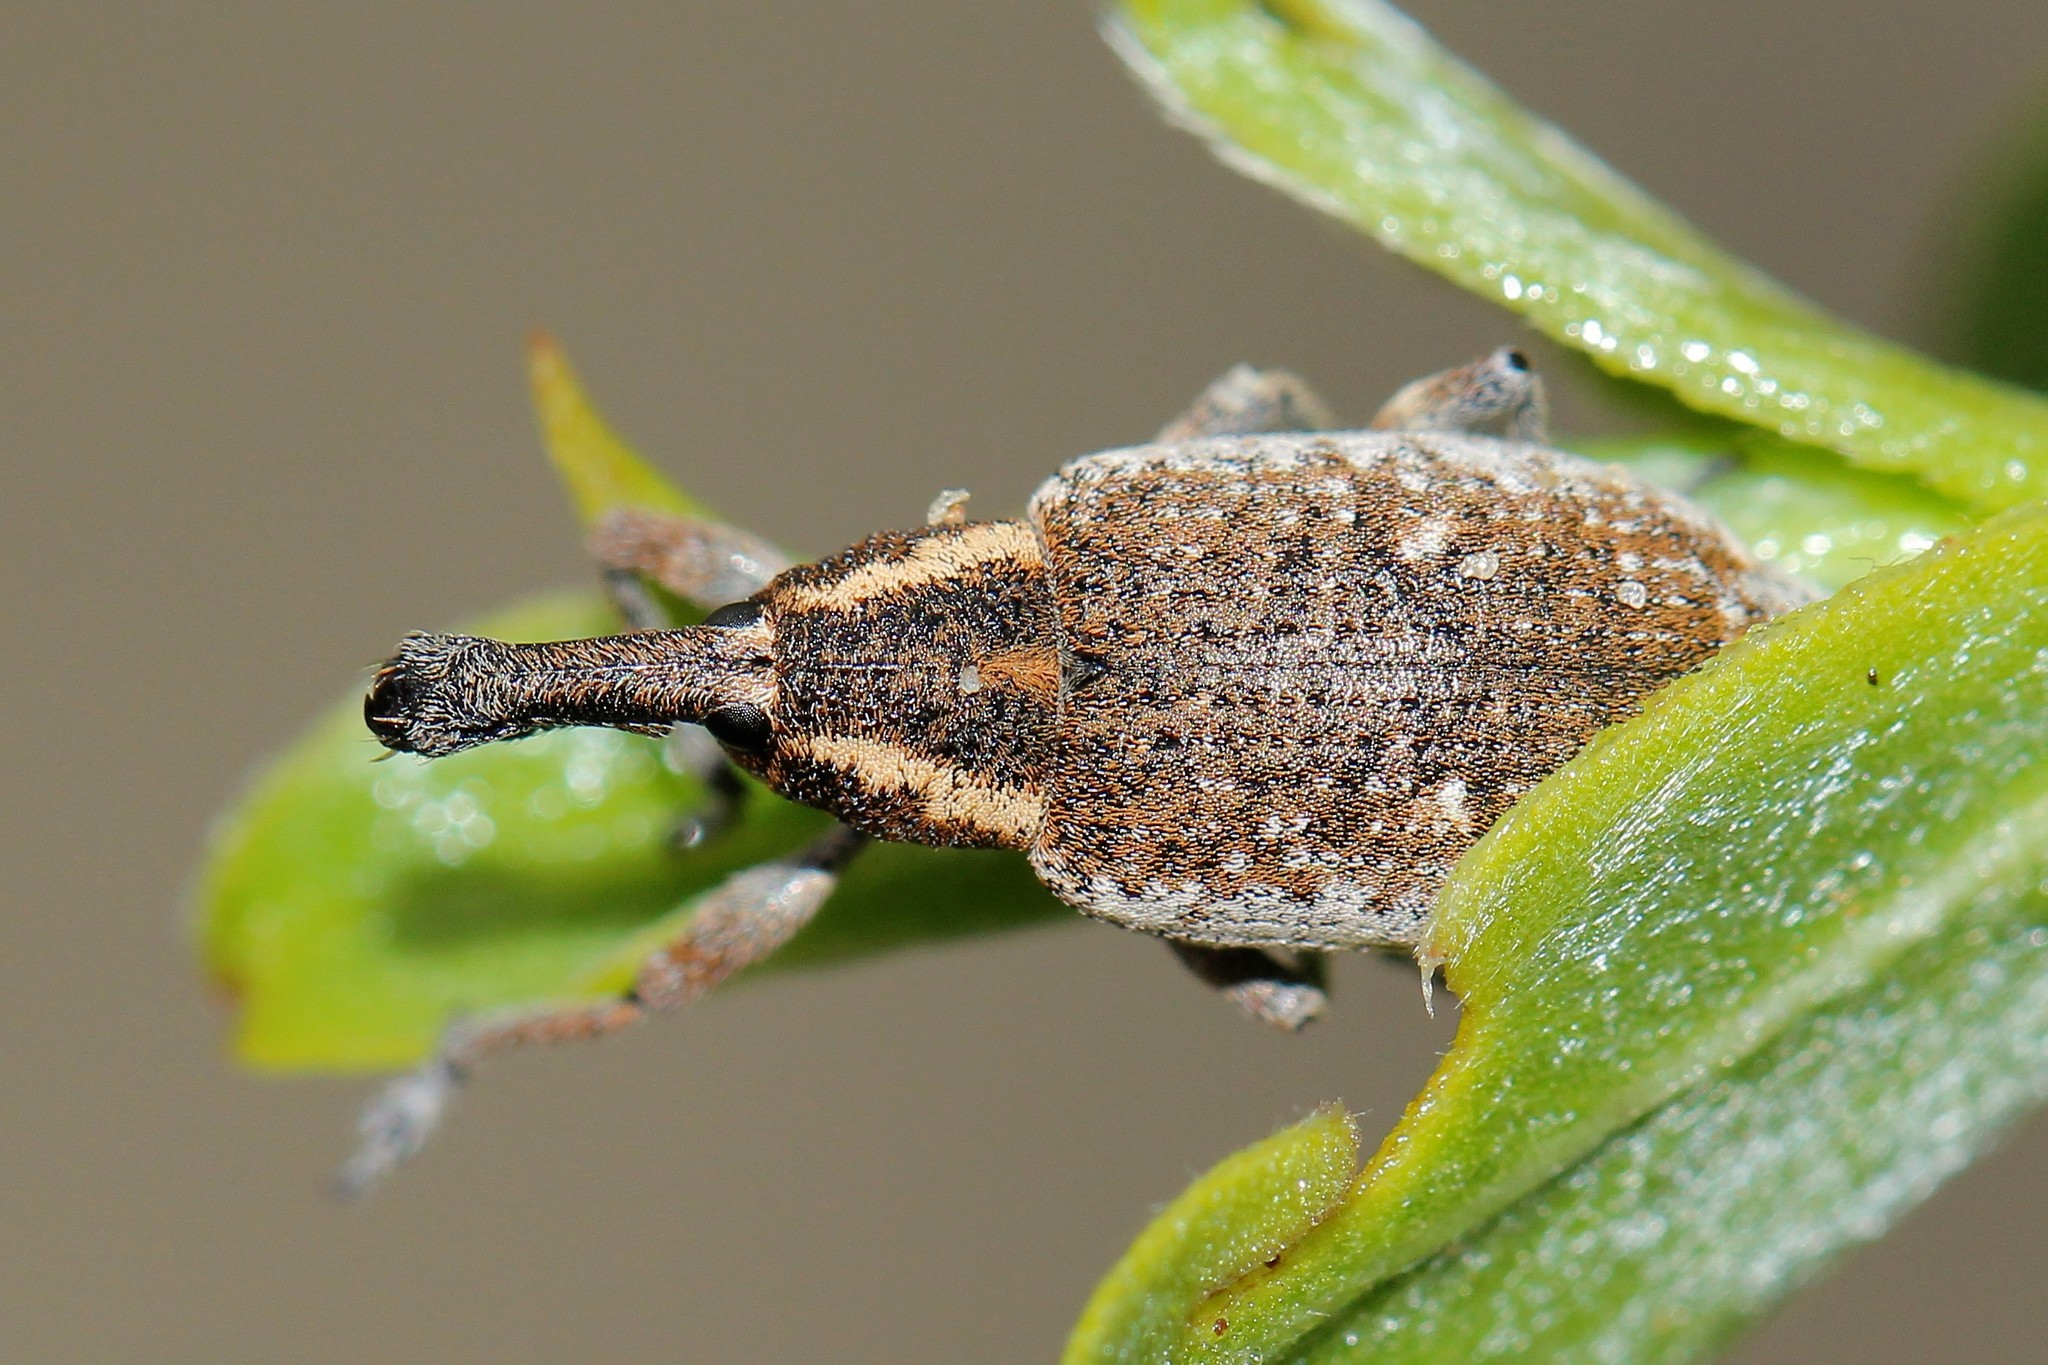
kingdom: Animalia
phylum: Arthropoda
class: Insecta
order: Coleoptera
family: Curculionidae
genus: Lepyrus
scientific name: Lepyrus palustris
